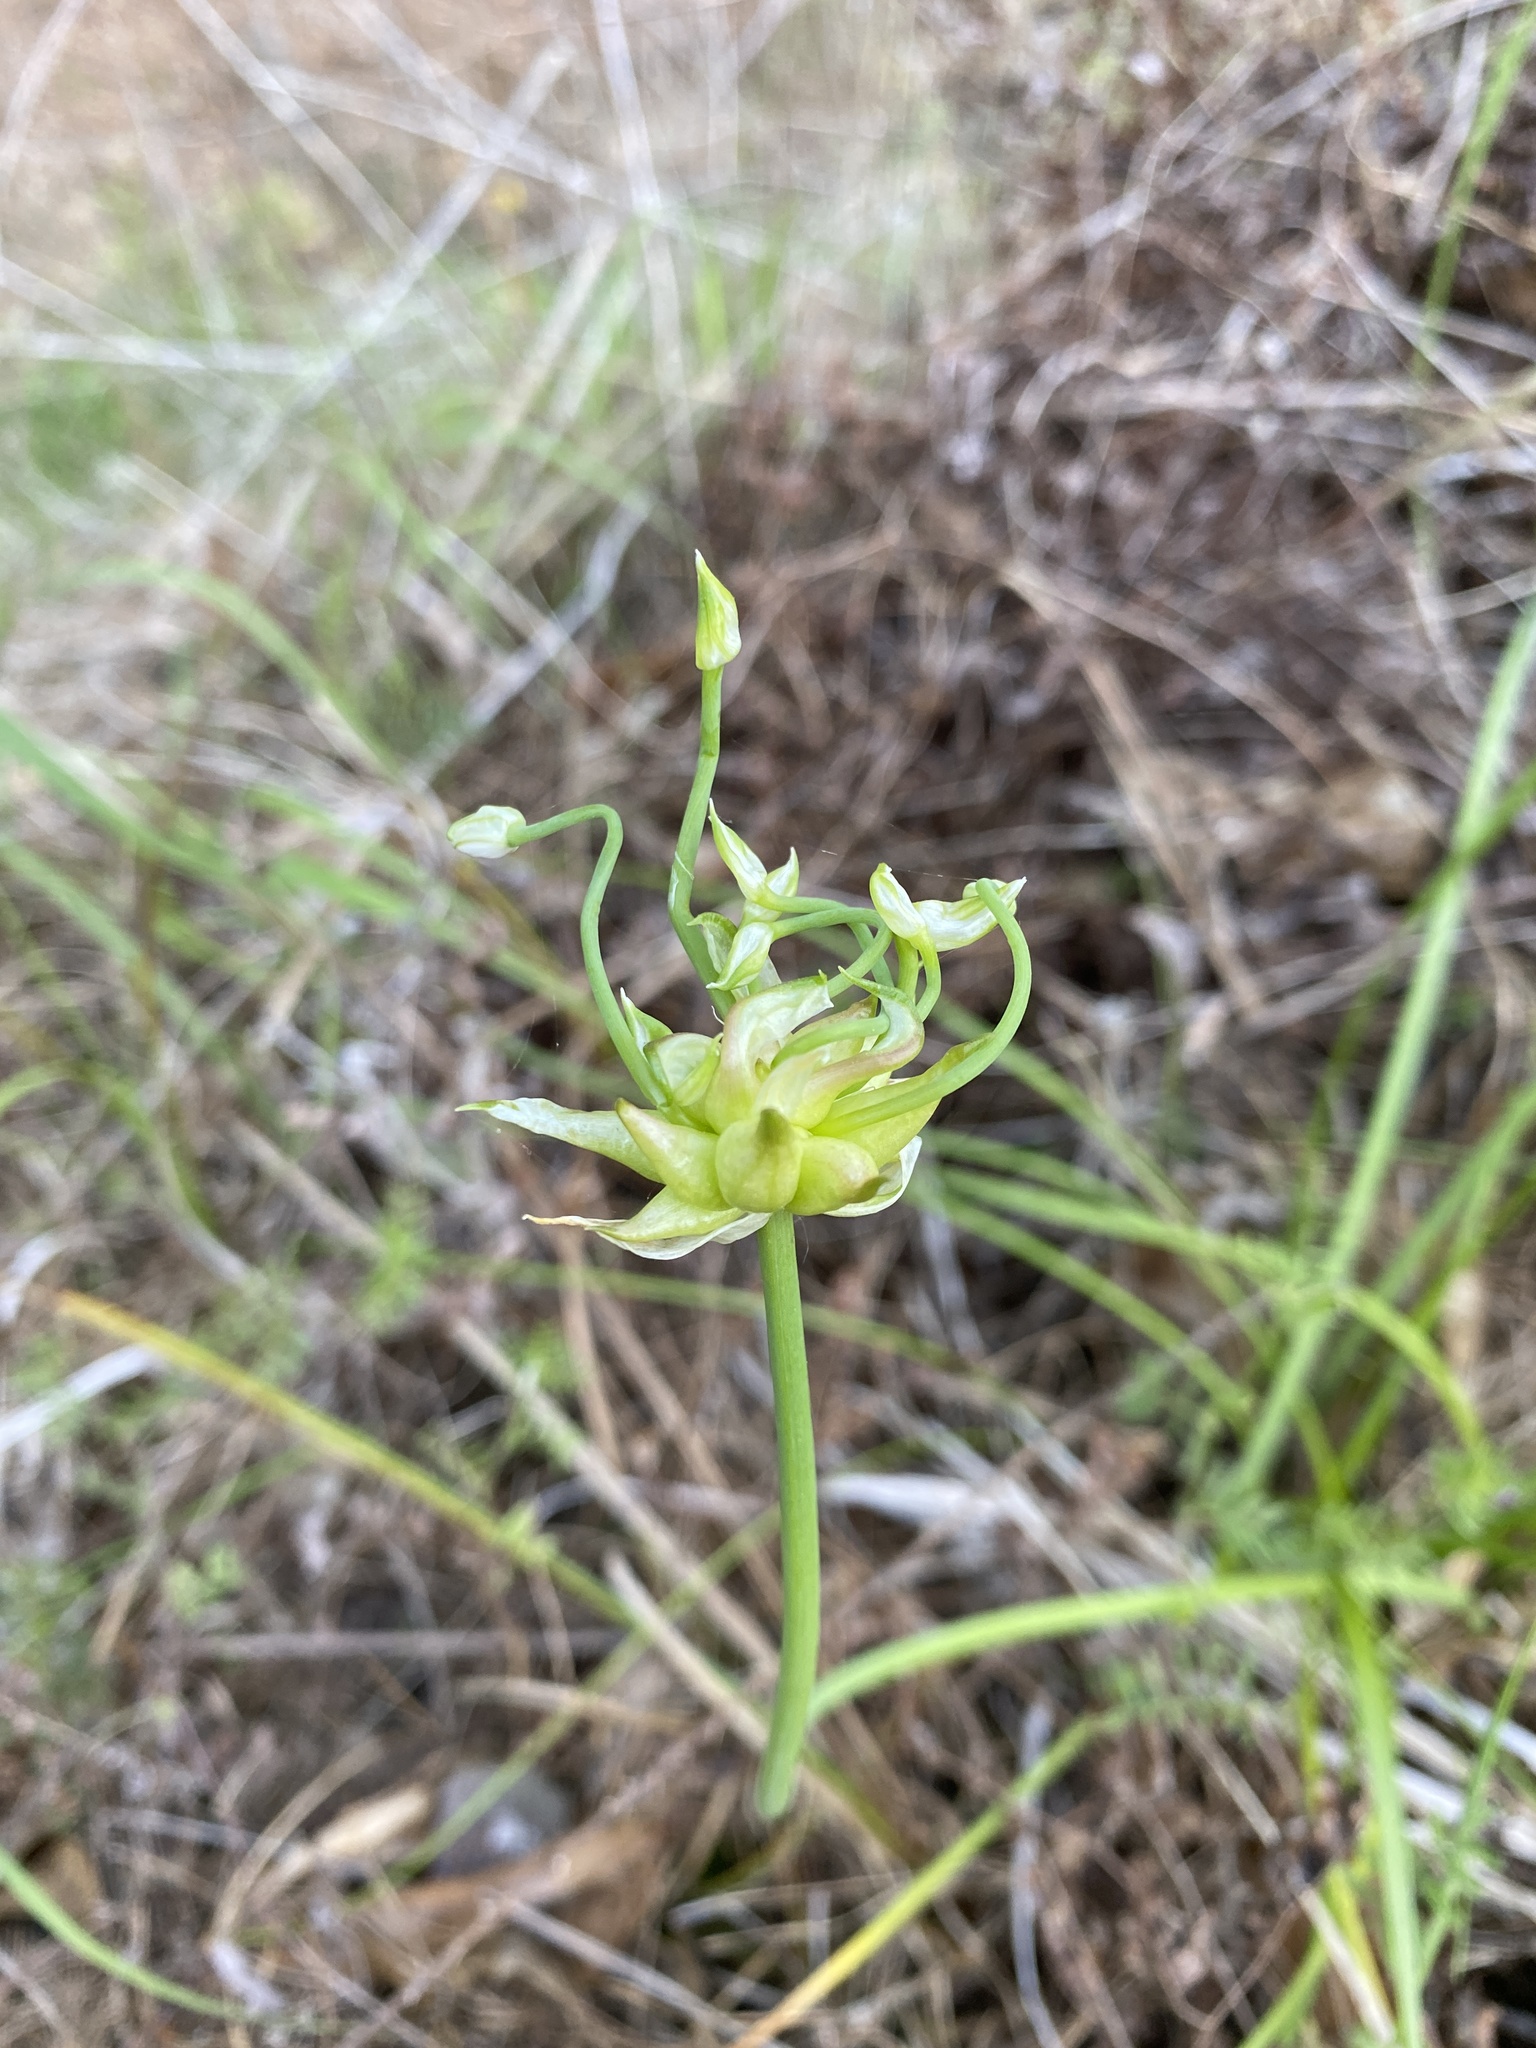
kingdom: Plantae
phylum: Tracheophyta
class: Liliopsida
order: Asparagales
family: Amaryllidaceae
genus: Allium
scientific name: Allium canadense
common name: Meadow garlic
